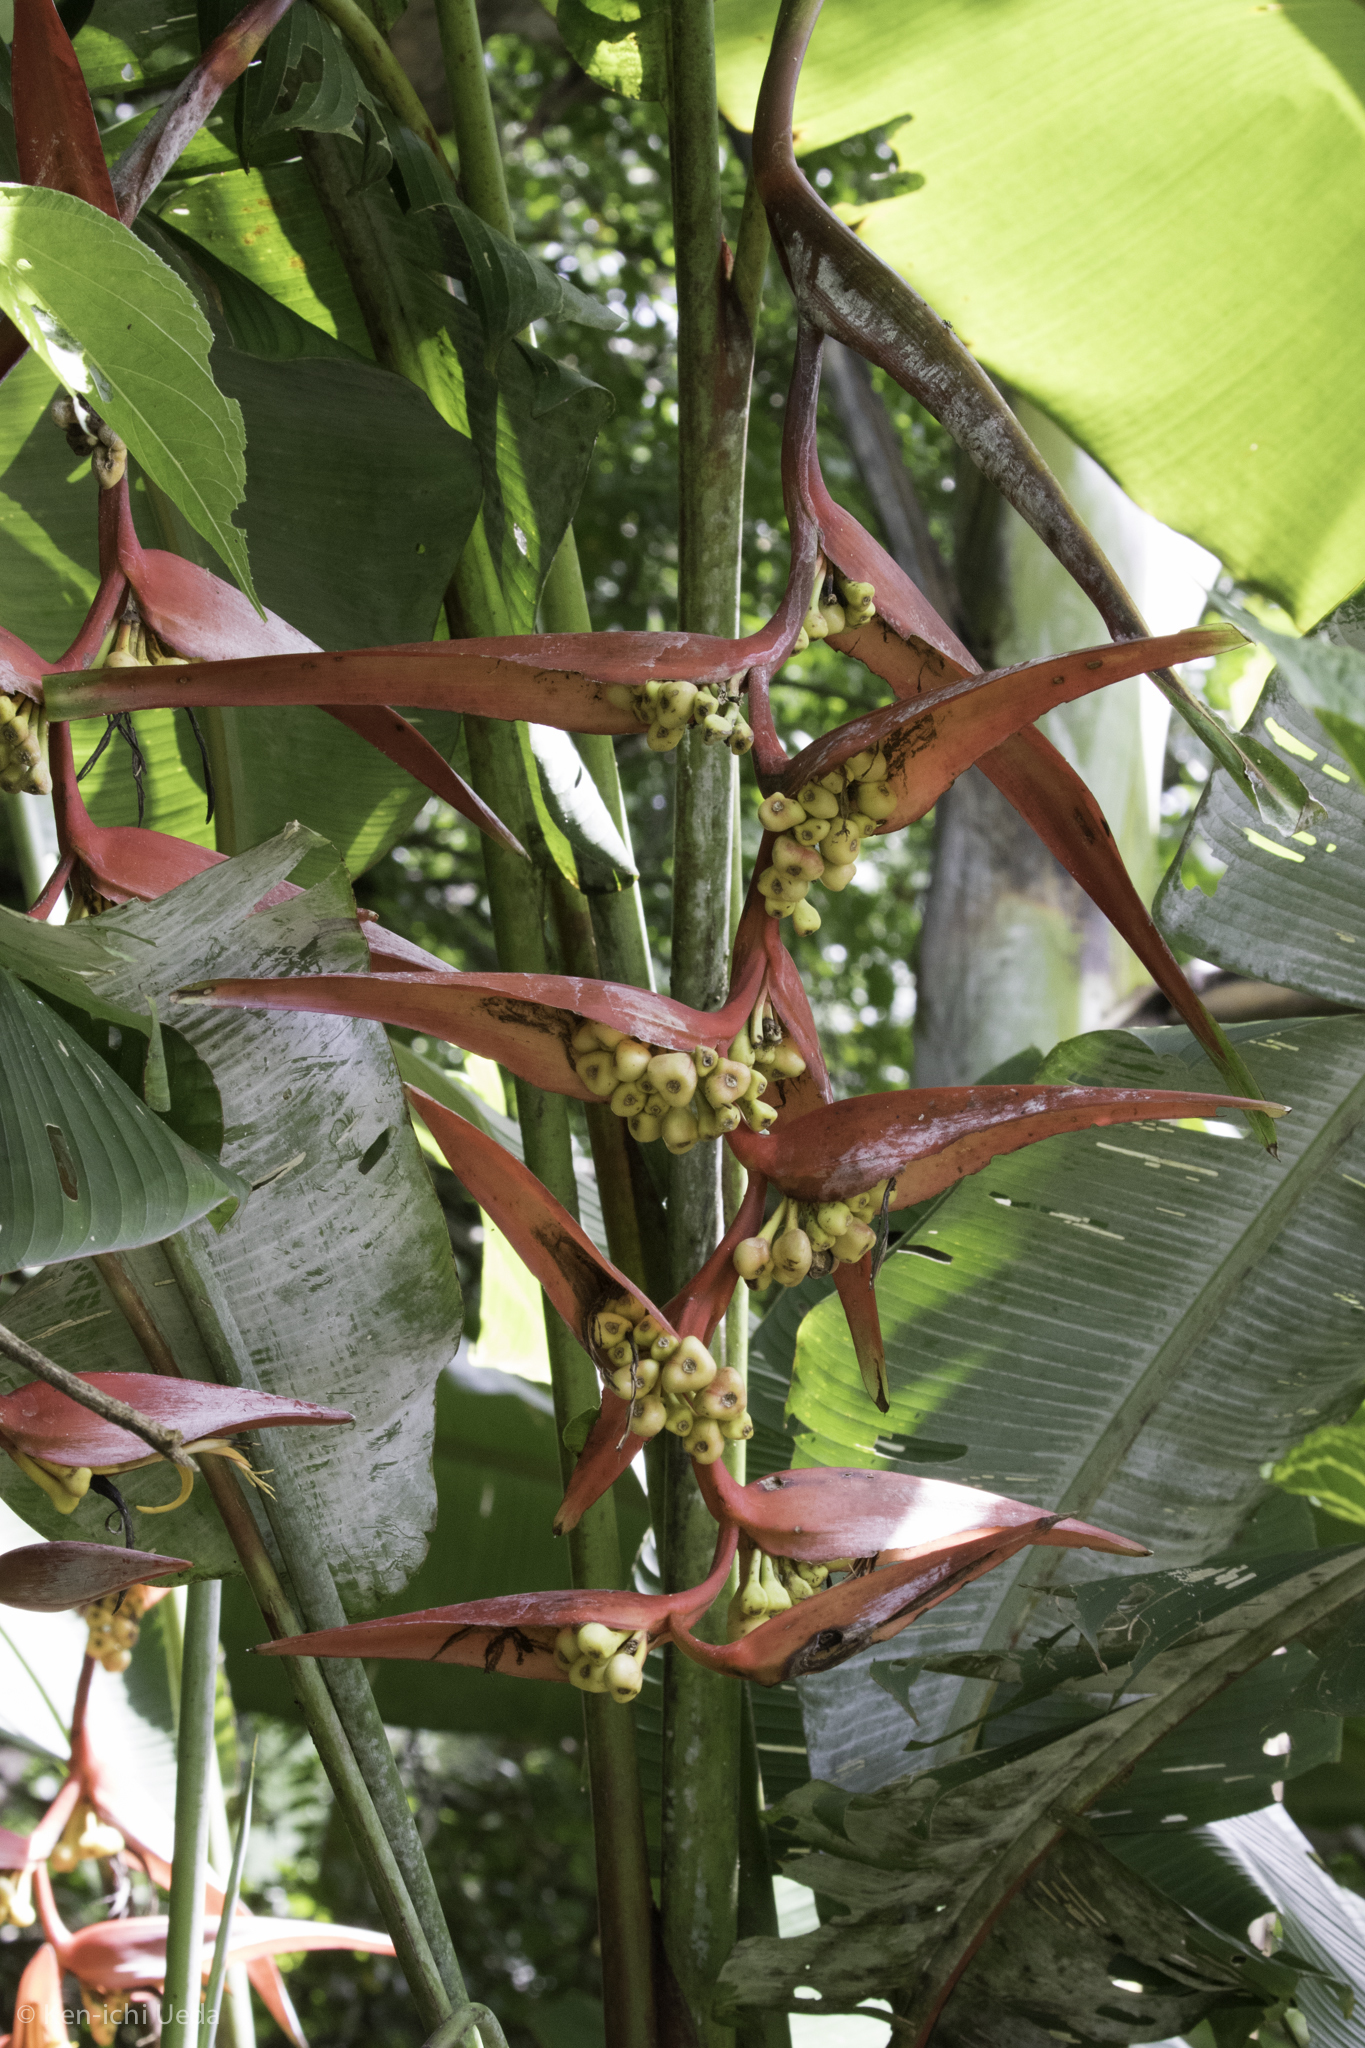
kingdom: Plantae
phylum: Tracheophyta
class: Liliopsida
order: Zingiberales
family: Heliconiaceae
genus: Heliconia
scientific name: Heliconia collinsiana
